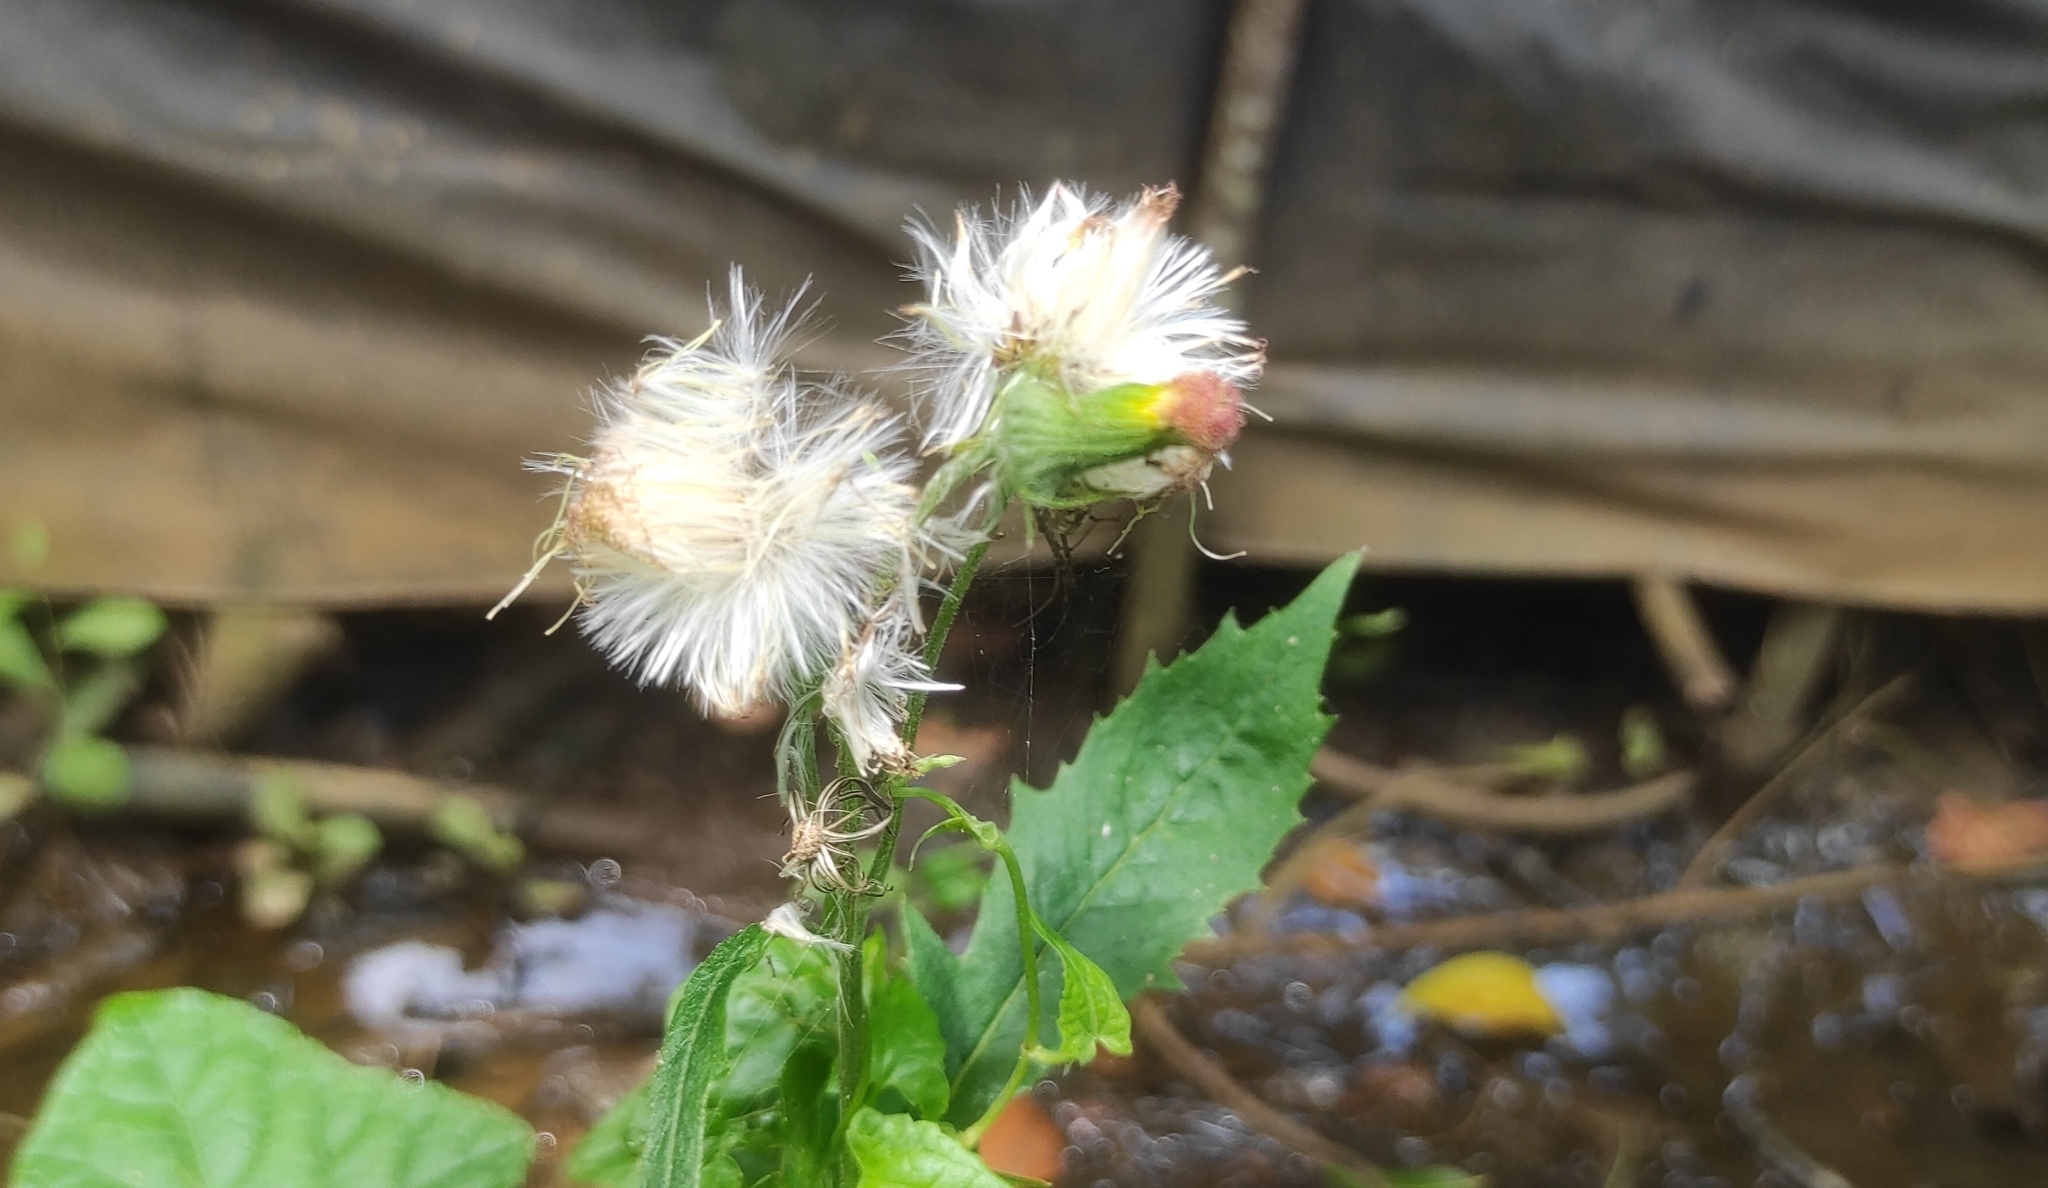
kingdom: Plantae
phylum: Tracheophyta
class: Magnoliopsida
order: Asterales
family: Asteraceae
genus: Crassocephalum
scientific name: Crassocephalum crepidioides
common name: Redflower ragleaf
